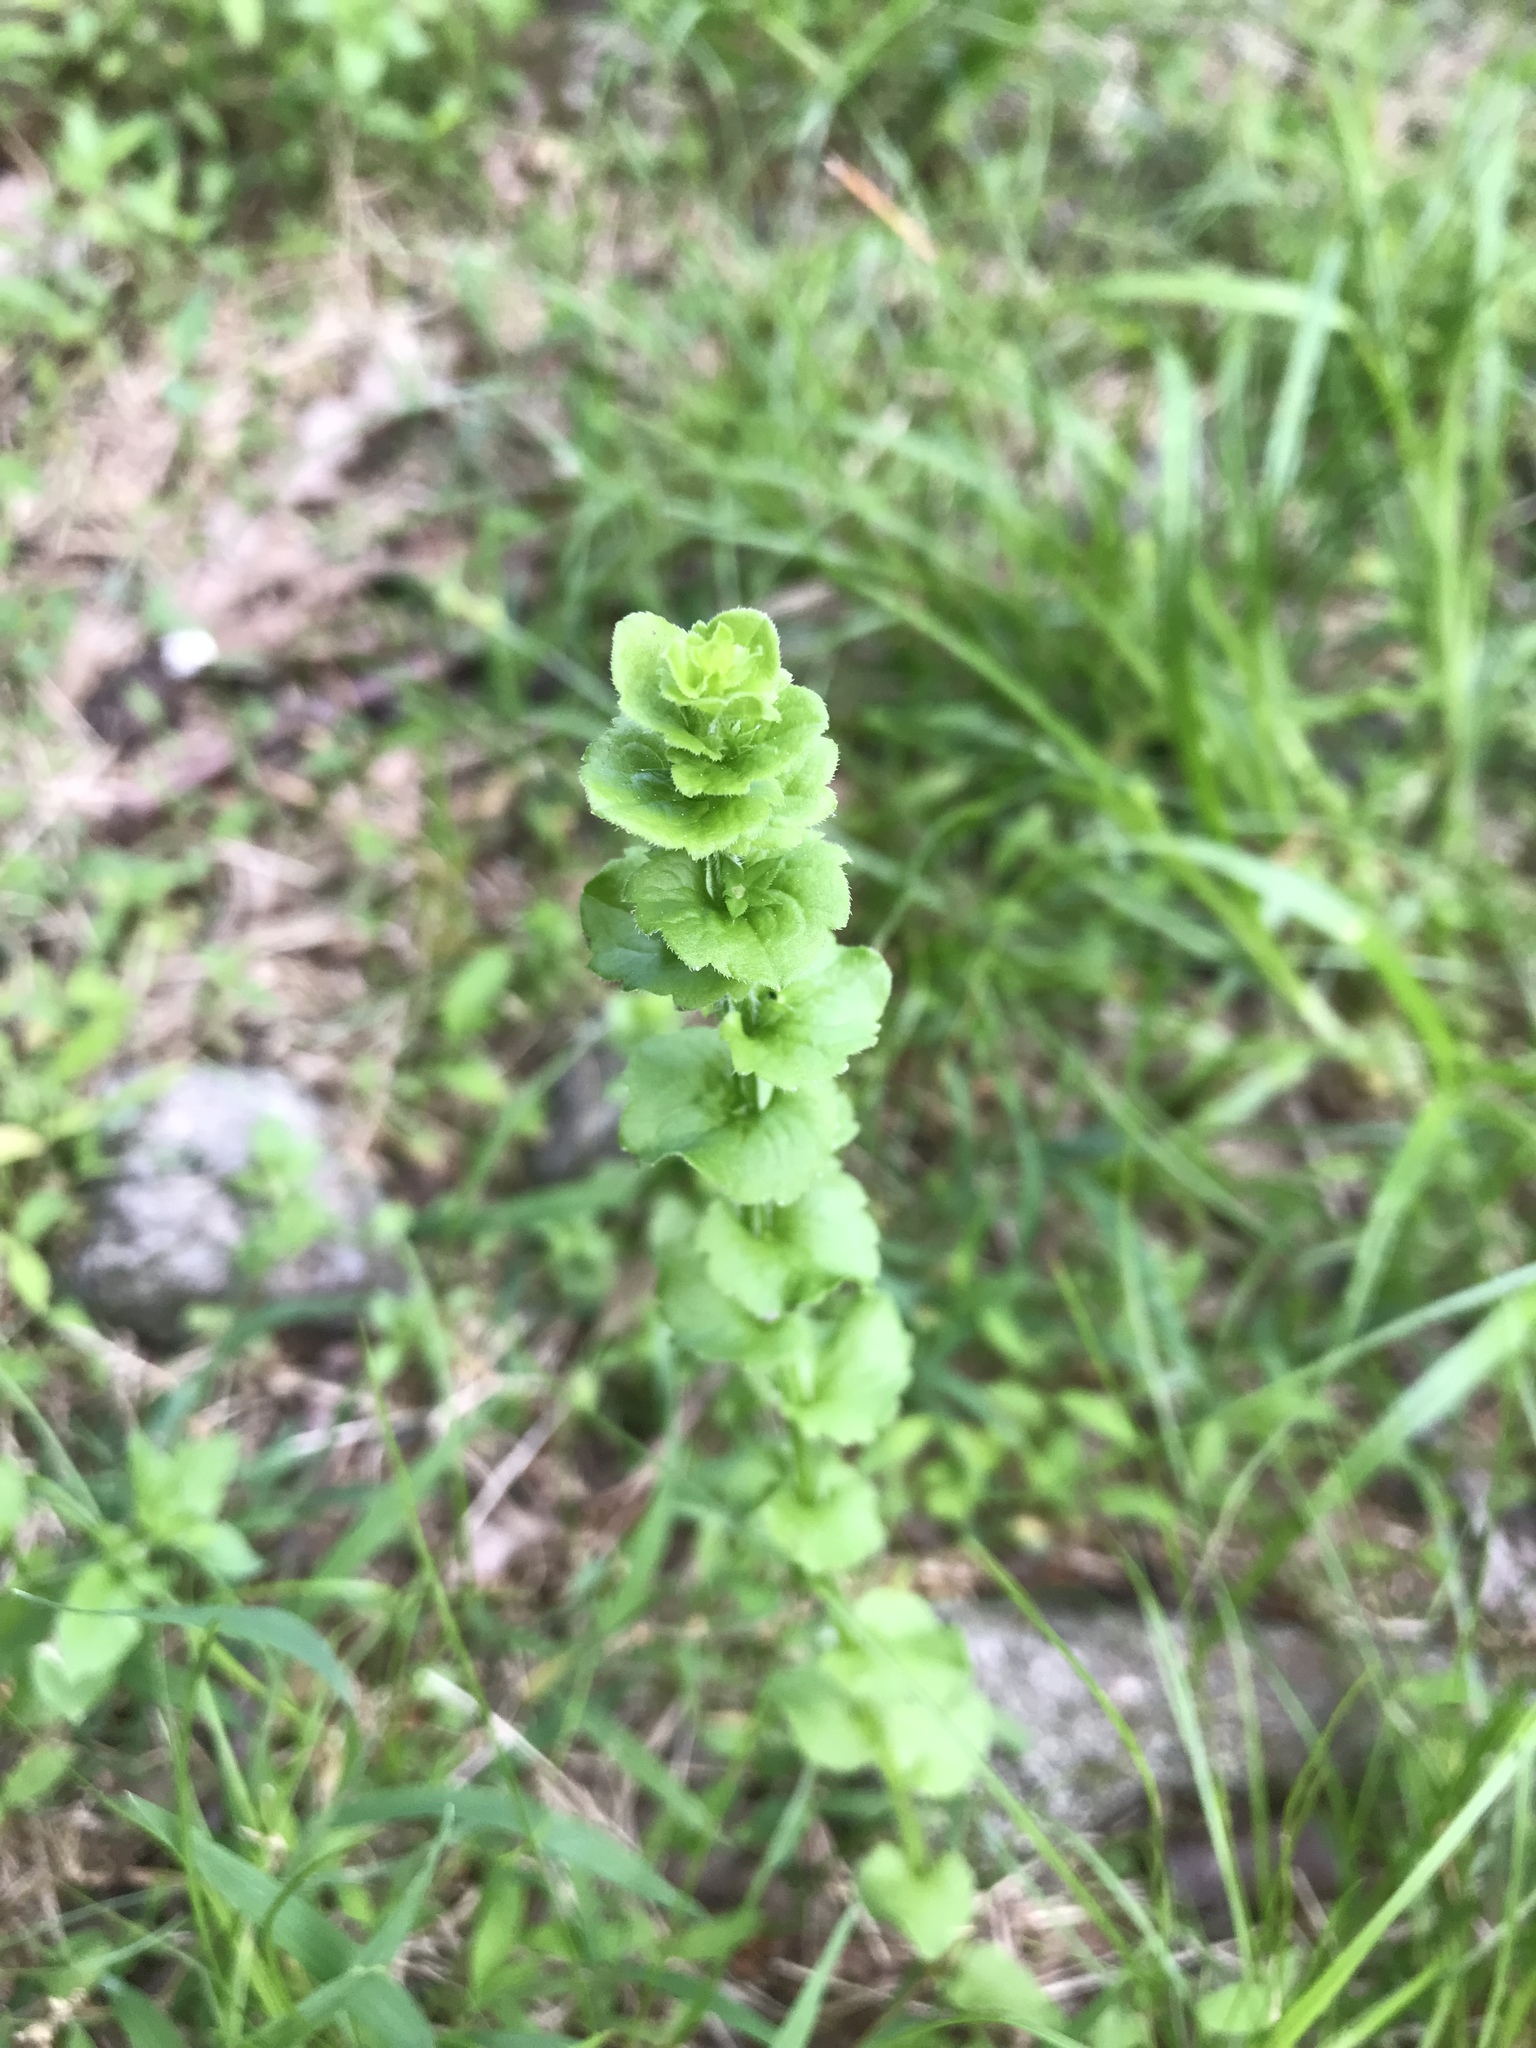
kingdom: Plantae
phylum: Tracheophyta
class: Magnoliopsida
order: Asterales
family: Campanulaceae
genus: Triodanis
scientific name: Triodanis perfoliata
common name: Clasping venus' looking-glass
